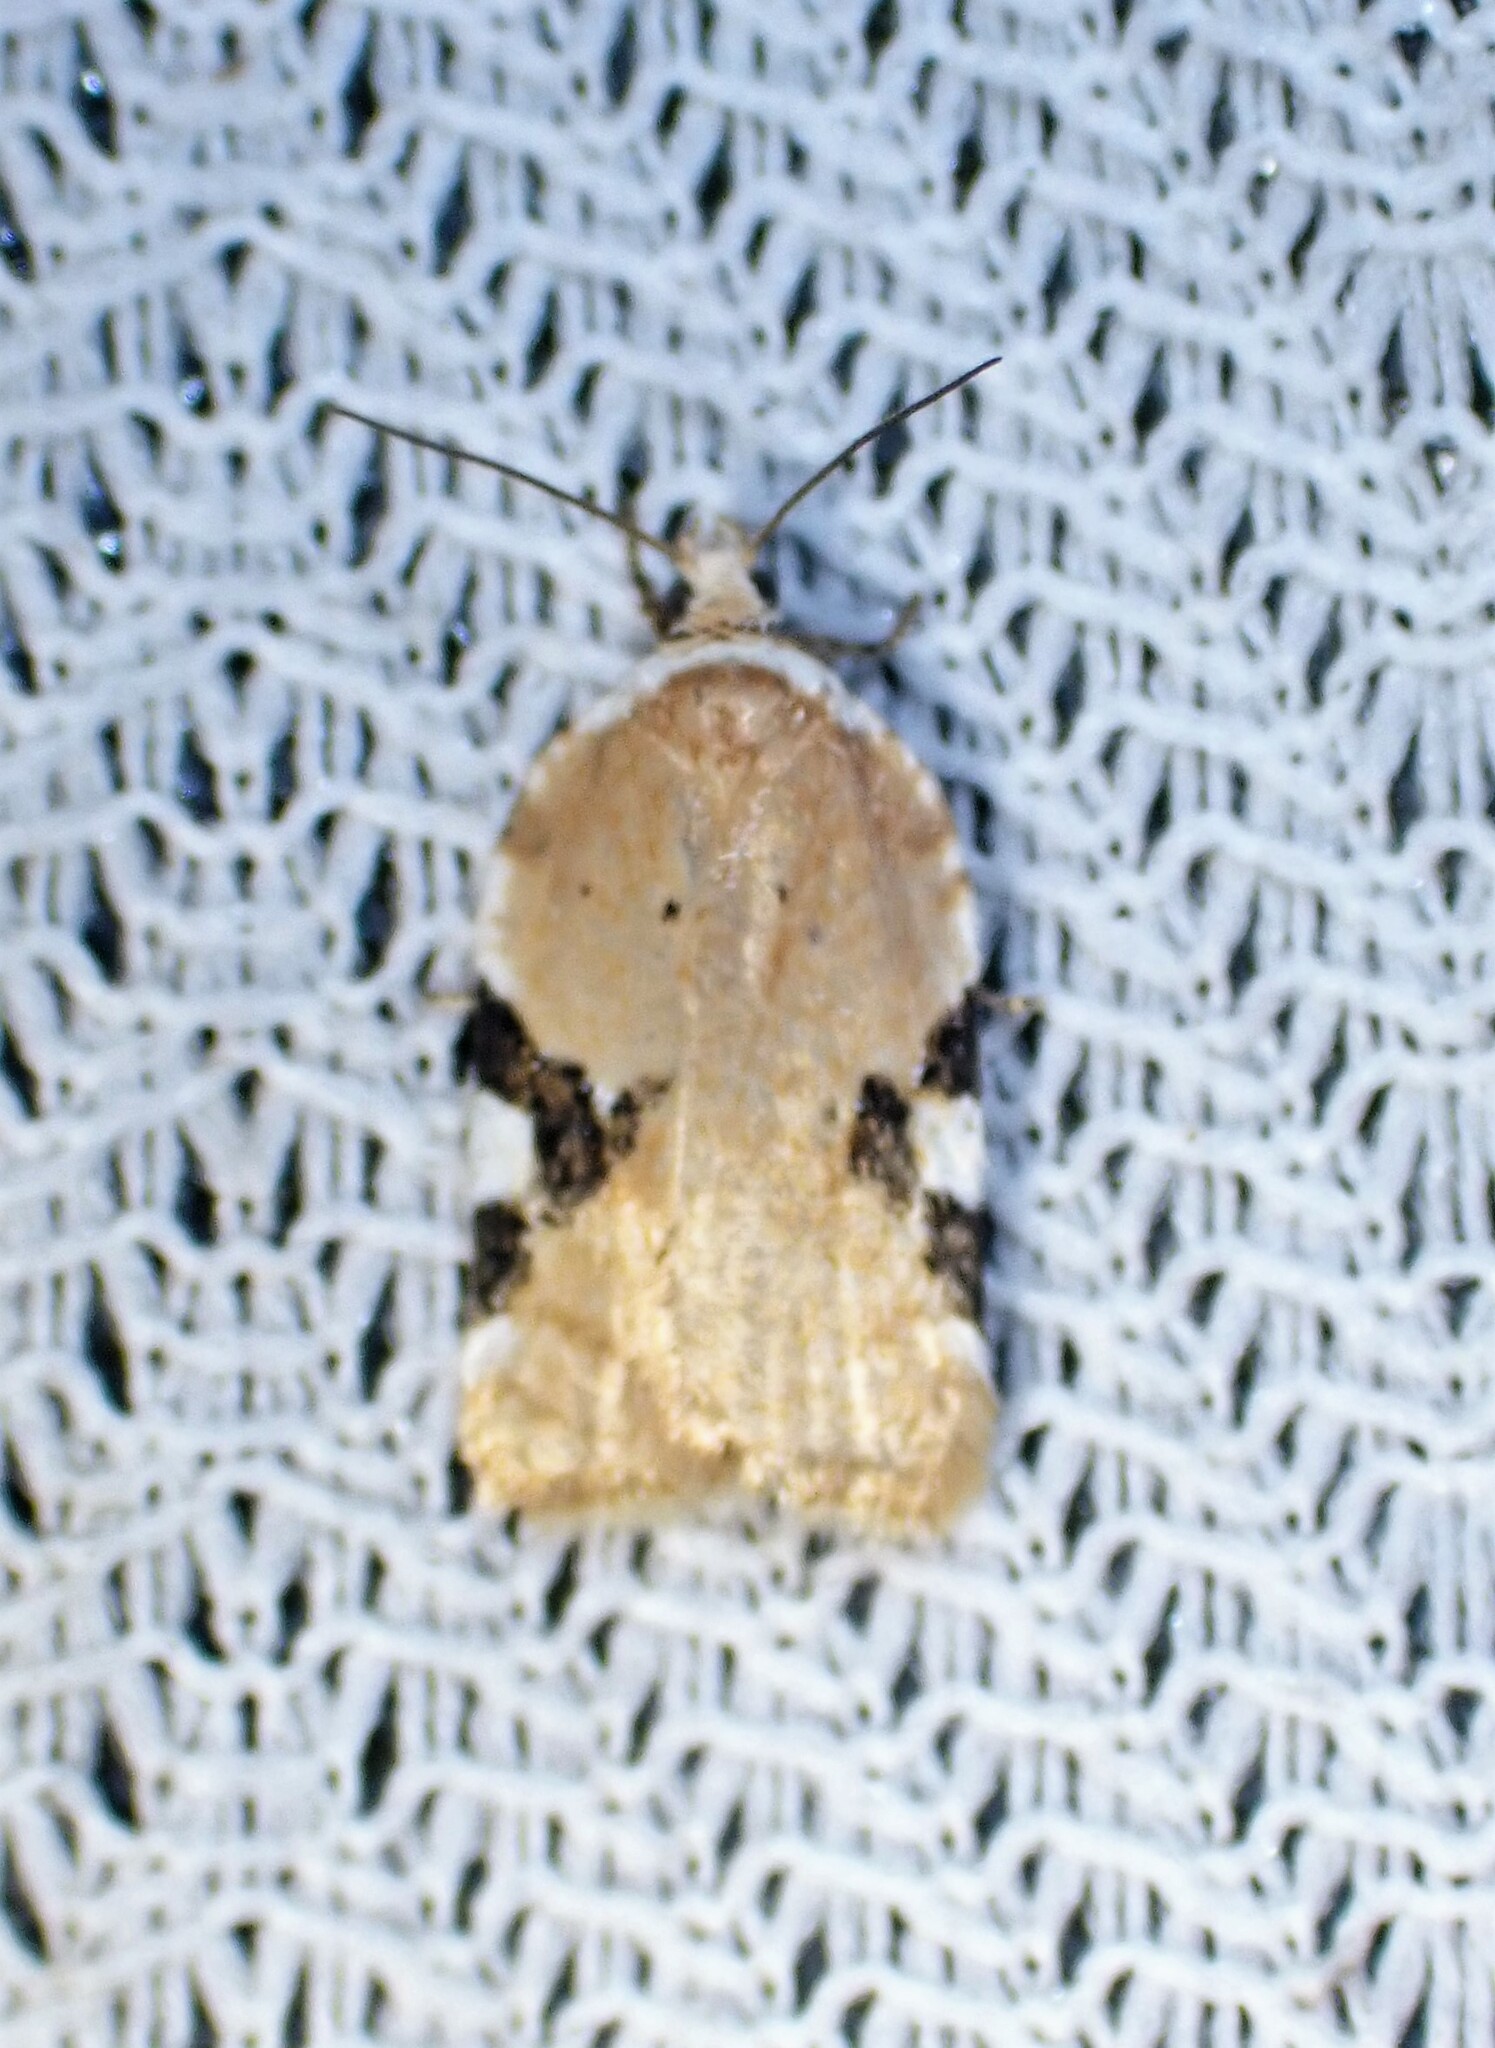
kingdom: Animalia
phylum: Arthropoda
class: Insecta
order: Lepidoptera
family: Tortricidae
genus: Acleris
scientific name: Acleris cervinana
